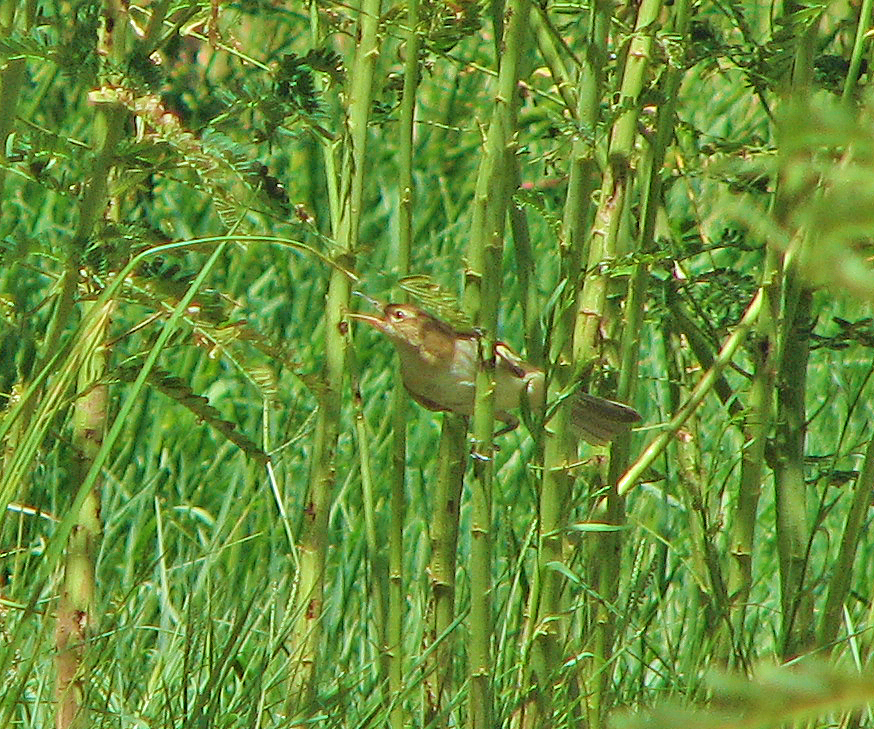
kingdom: Animalia
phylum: Chordata
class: Aves
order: Passeriformes
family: Acrocephalidae
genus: Acrocephalus
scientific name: Acrocephalus australis
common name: Australian reed warbler
